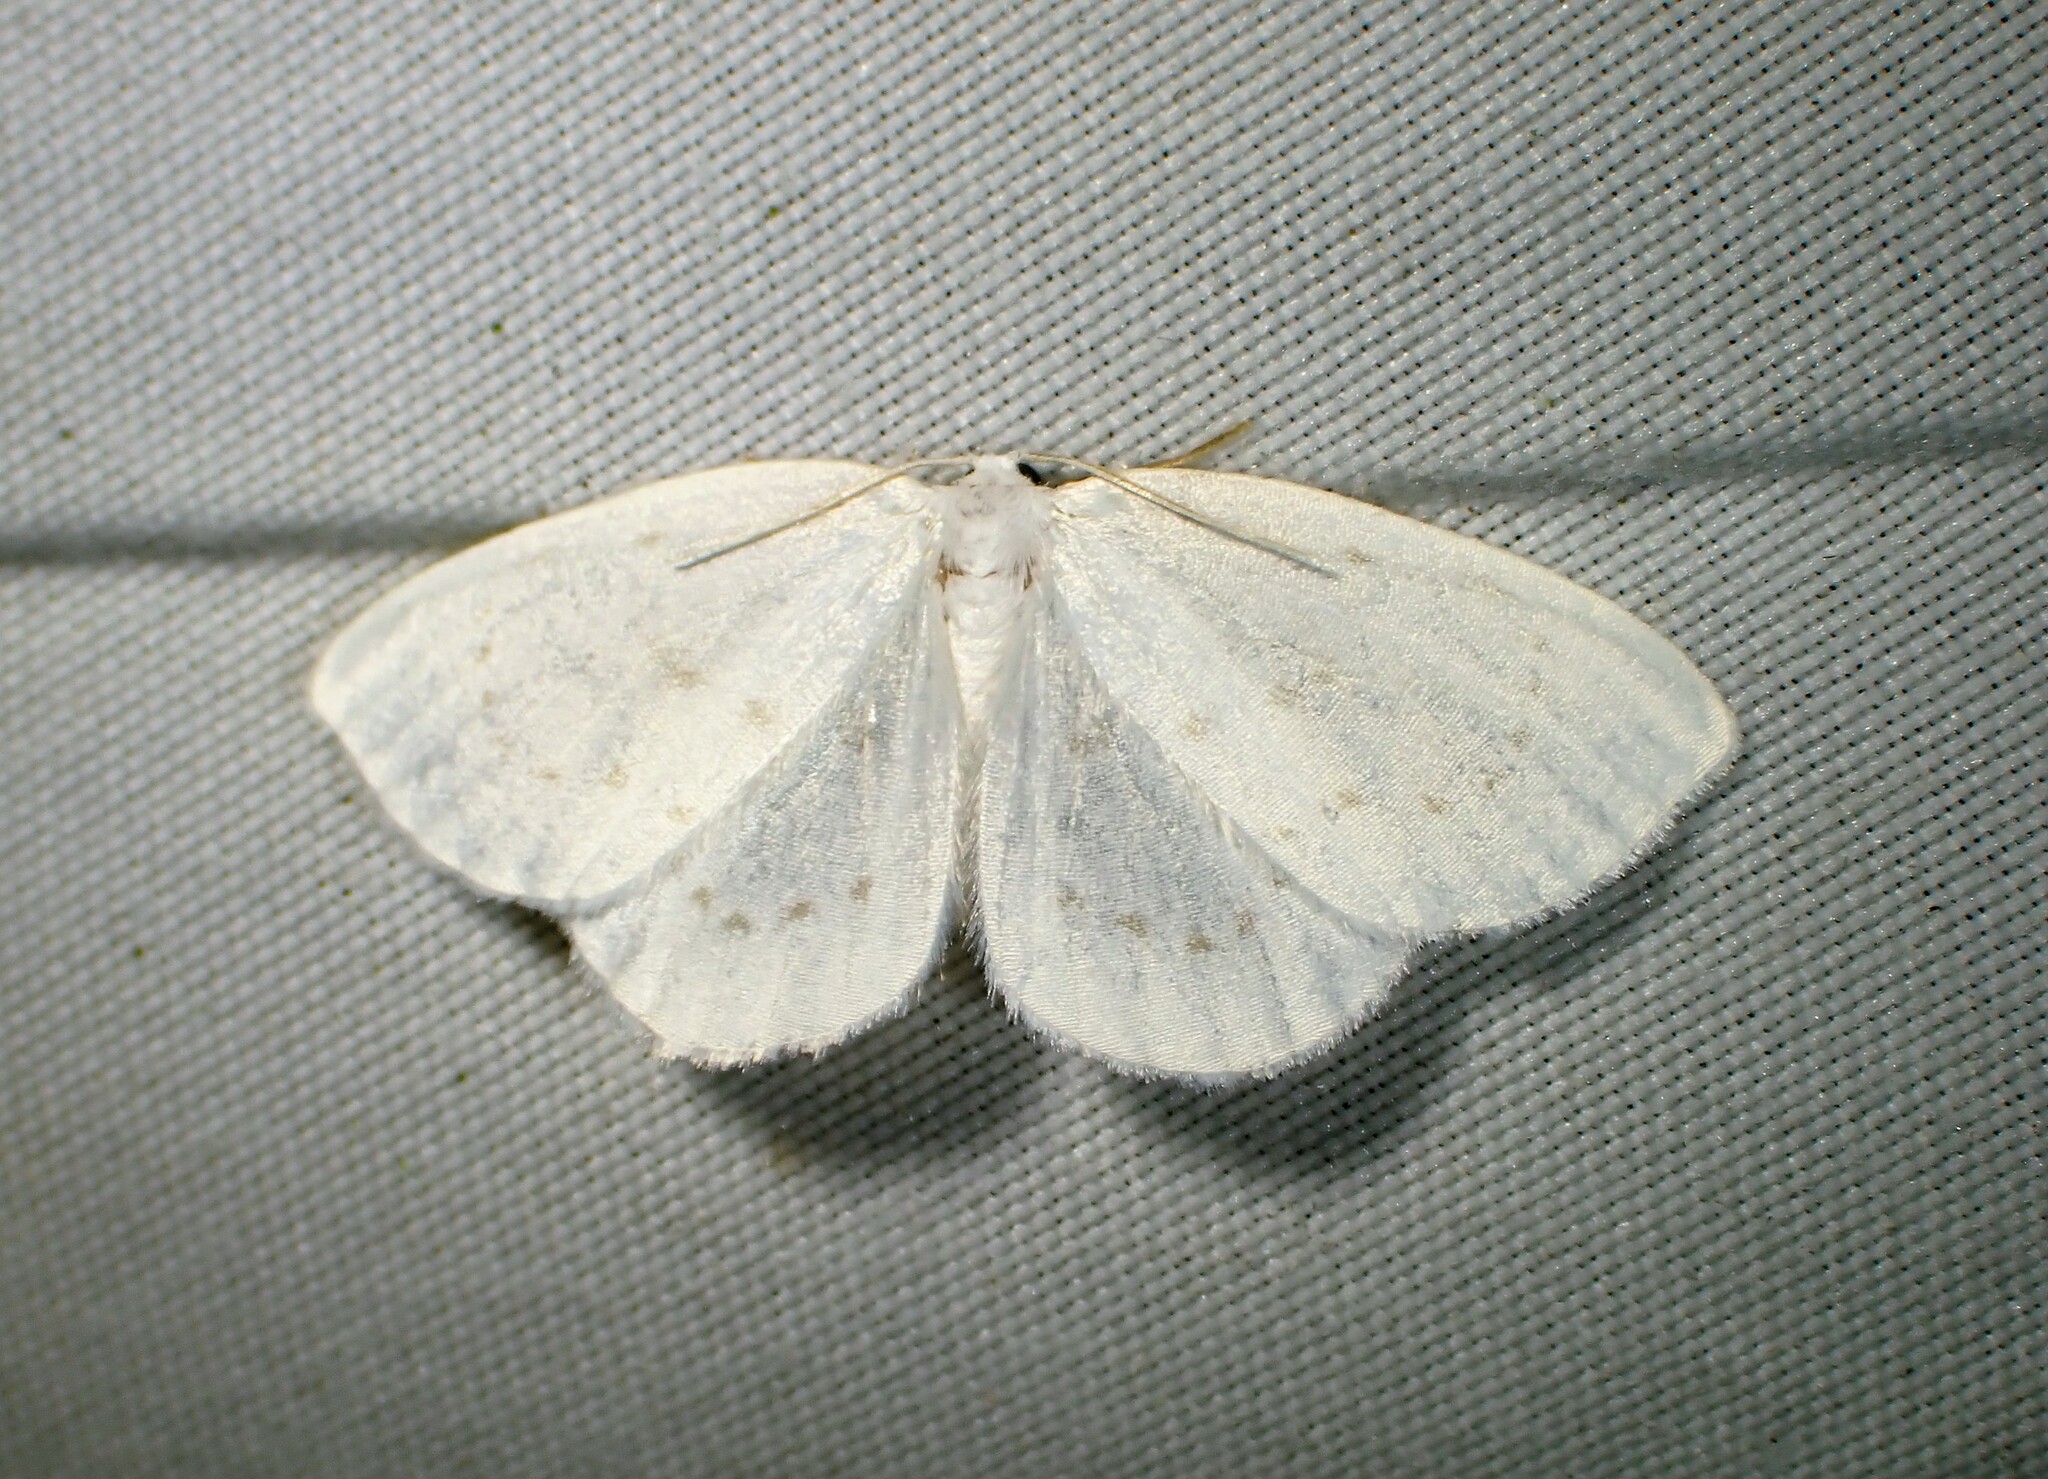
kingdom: Animalia
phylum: Arthropoda
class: Insecta
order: Lepidoptera
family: Drepanidae
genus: Eudeilinia
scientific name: Eudeilinia herminiata
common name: Northern eudeilinea moth
